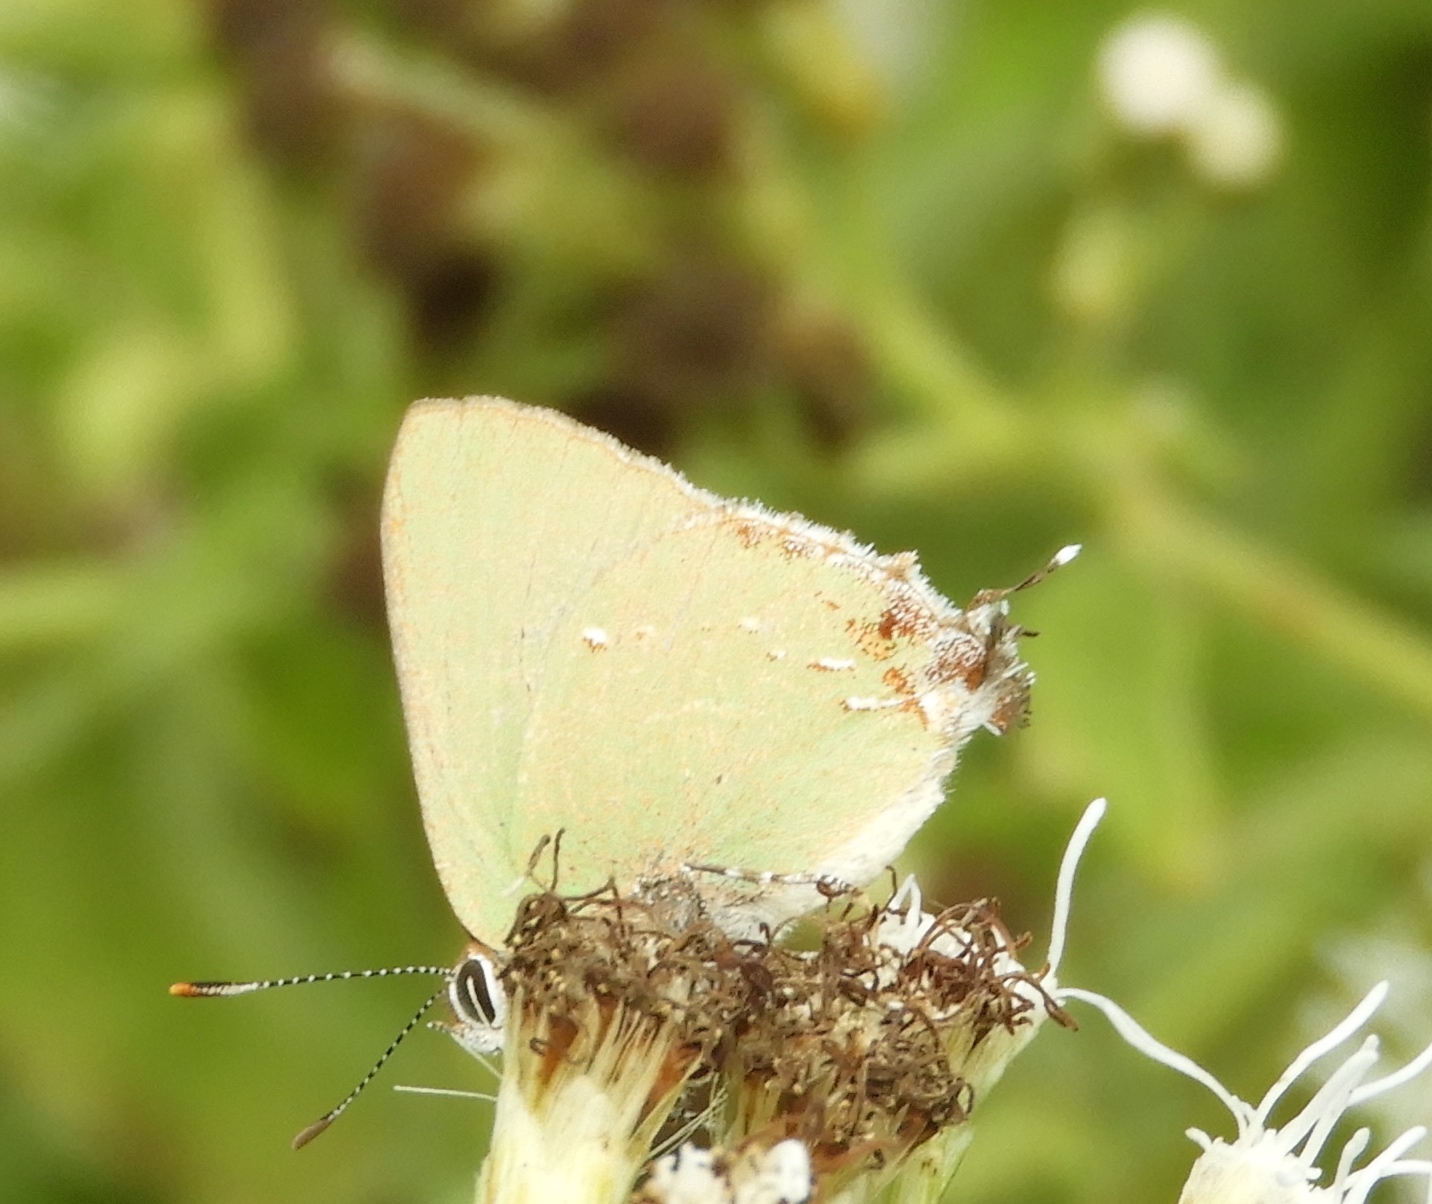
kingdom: Animalia
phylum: Arthropoda
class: Insecta
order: Lepidoptera
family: Lycaenidae
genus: Cyanophrys
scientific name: Cyanophrys miserabilis
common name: Clench's greenstreak
